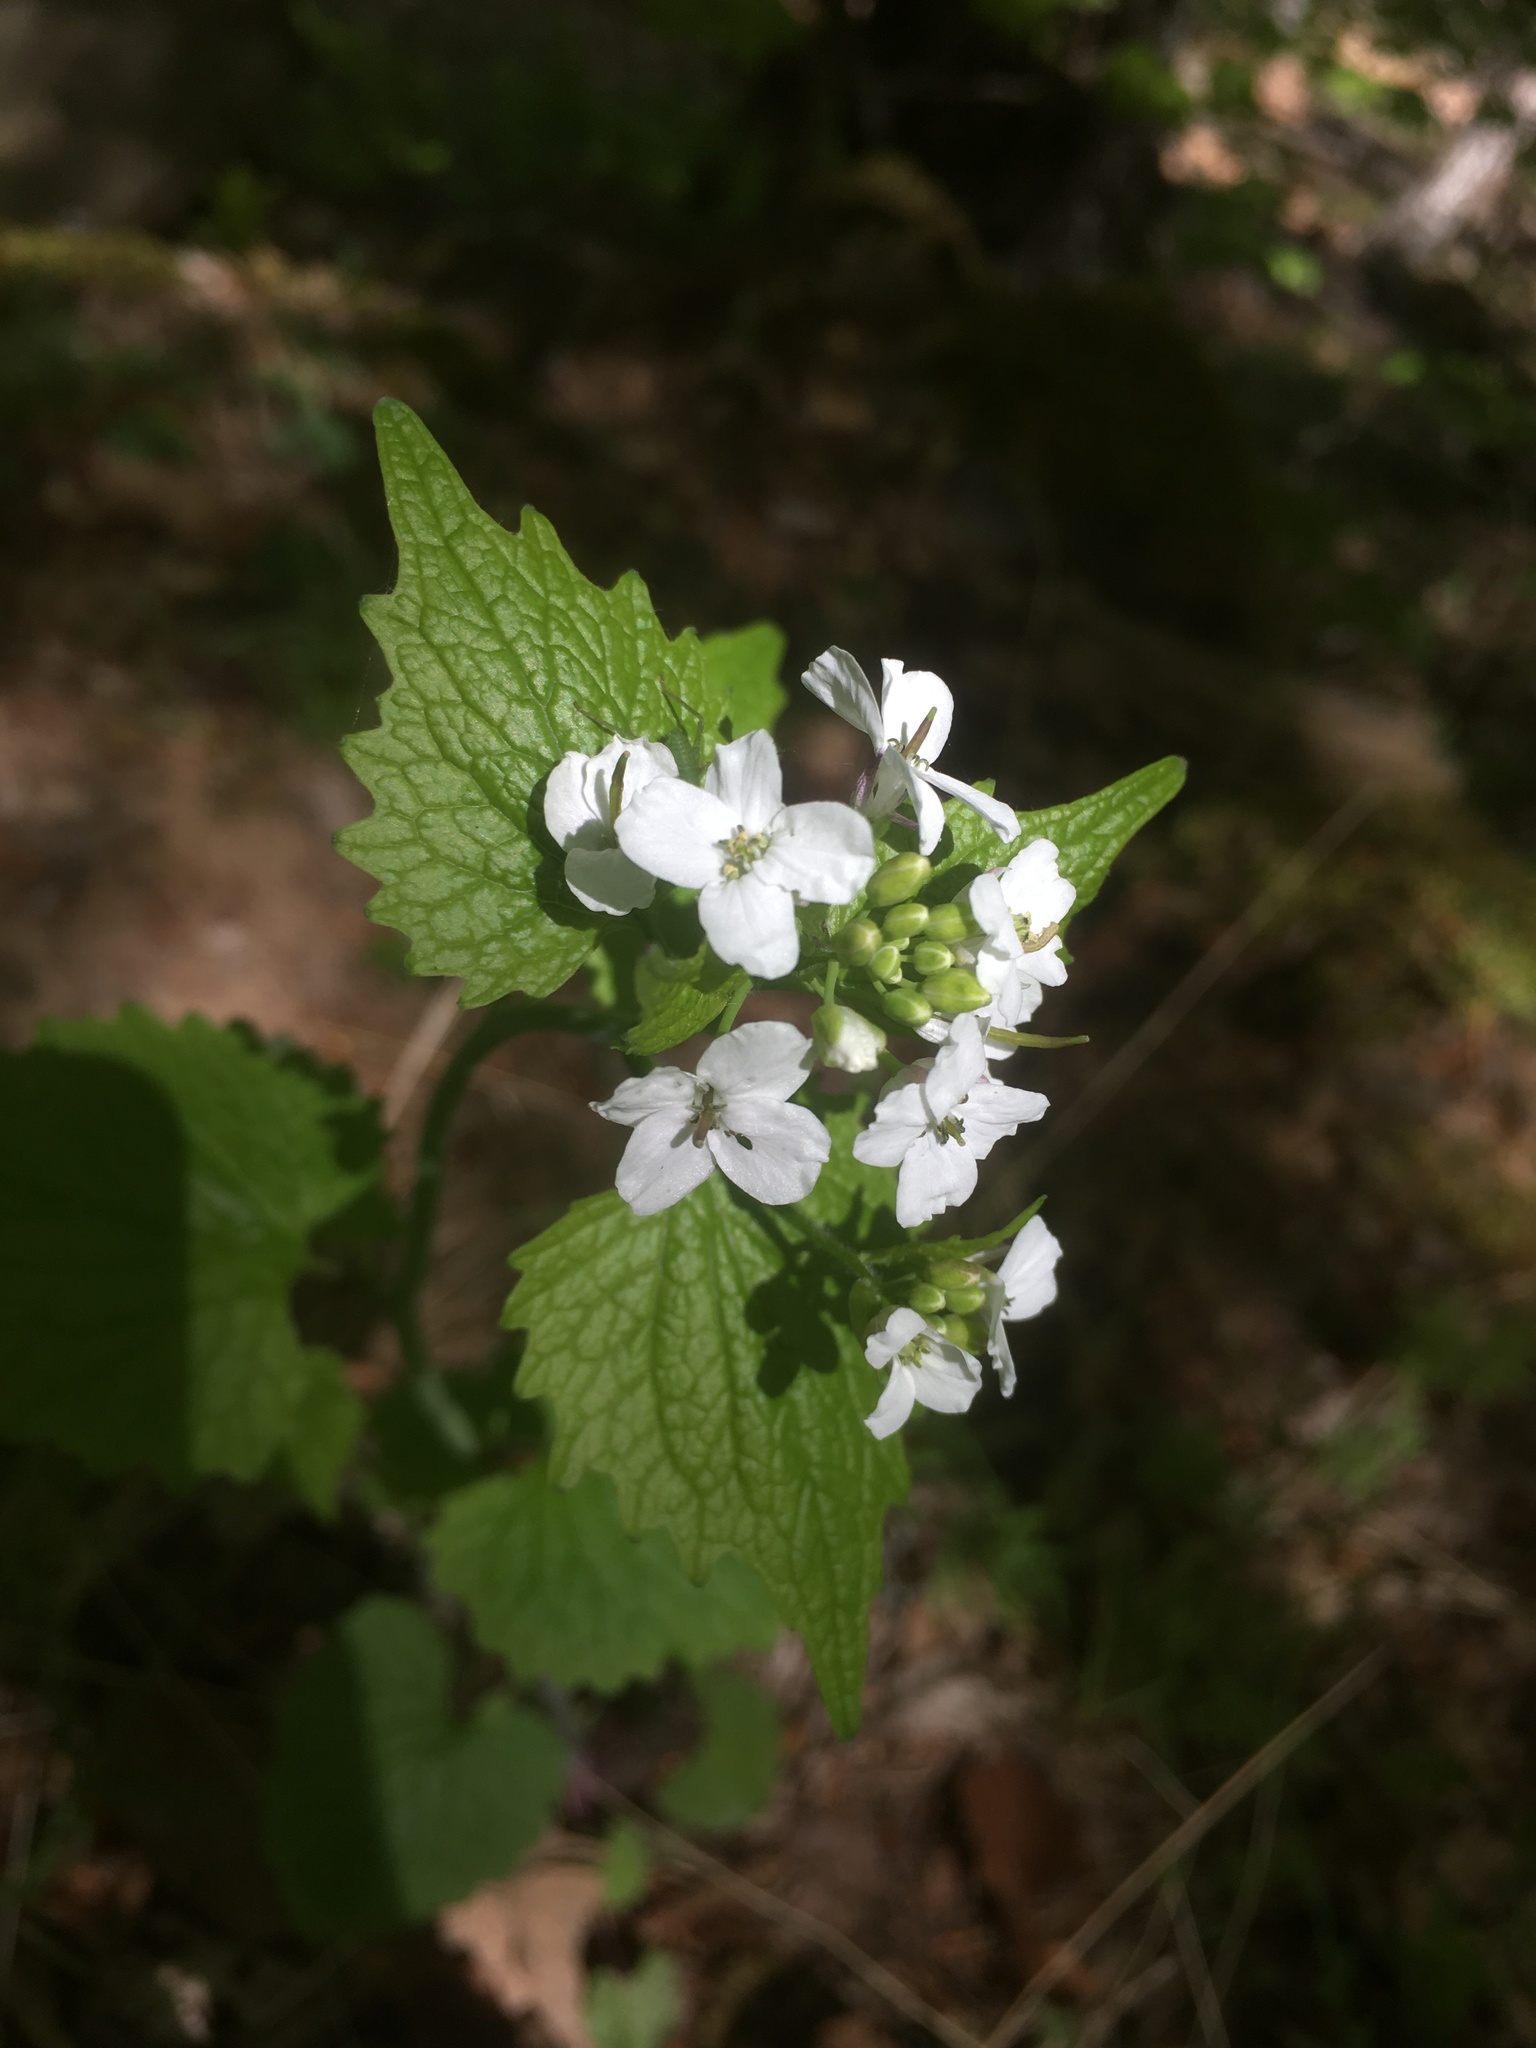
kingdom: Plantae
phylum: Tracheophyta
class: Magnoliopsida
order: Brassicales
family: Brassicaceae
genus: Alliaria
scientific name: Alliaria petiolata
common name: Garlic mustard
